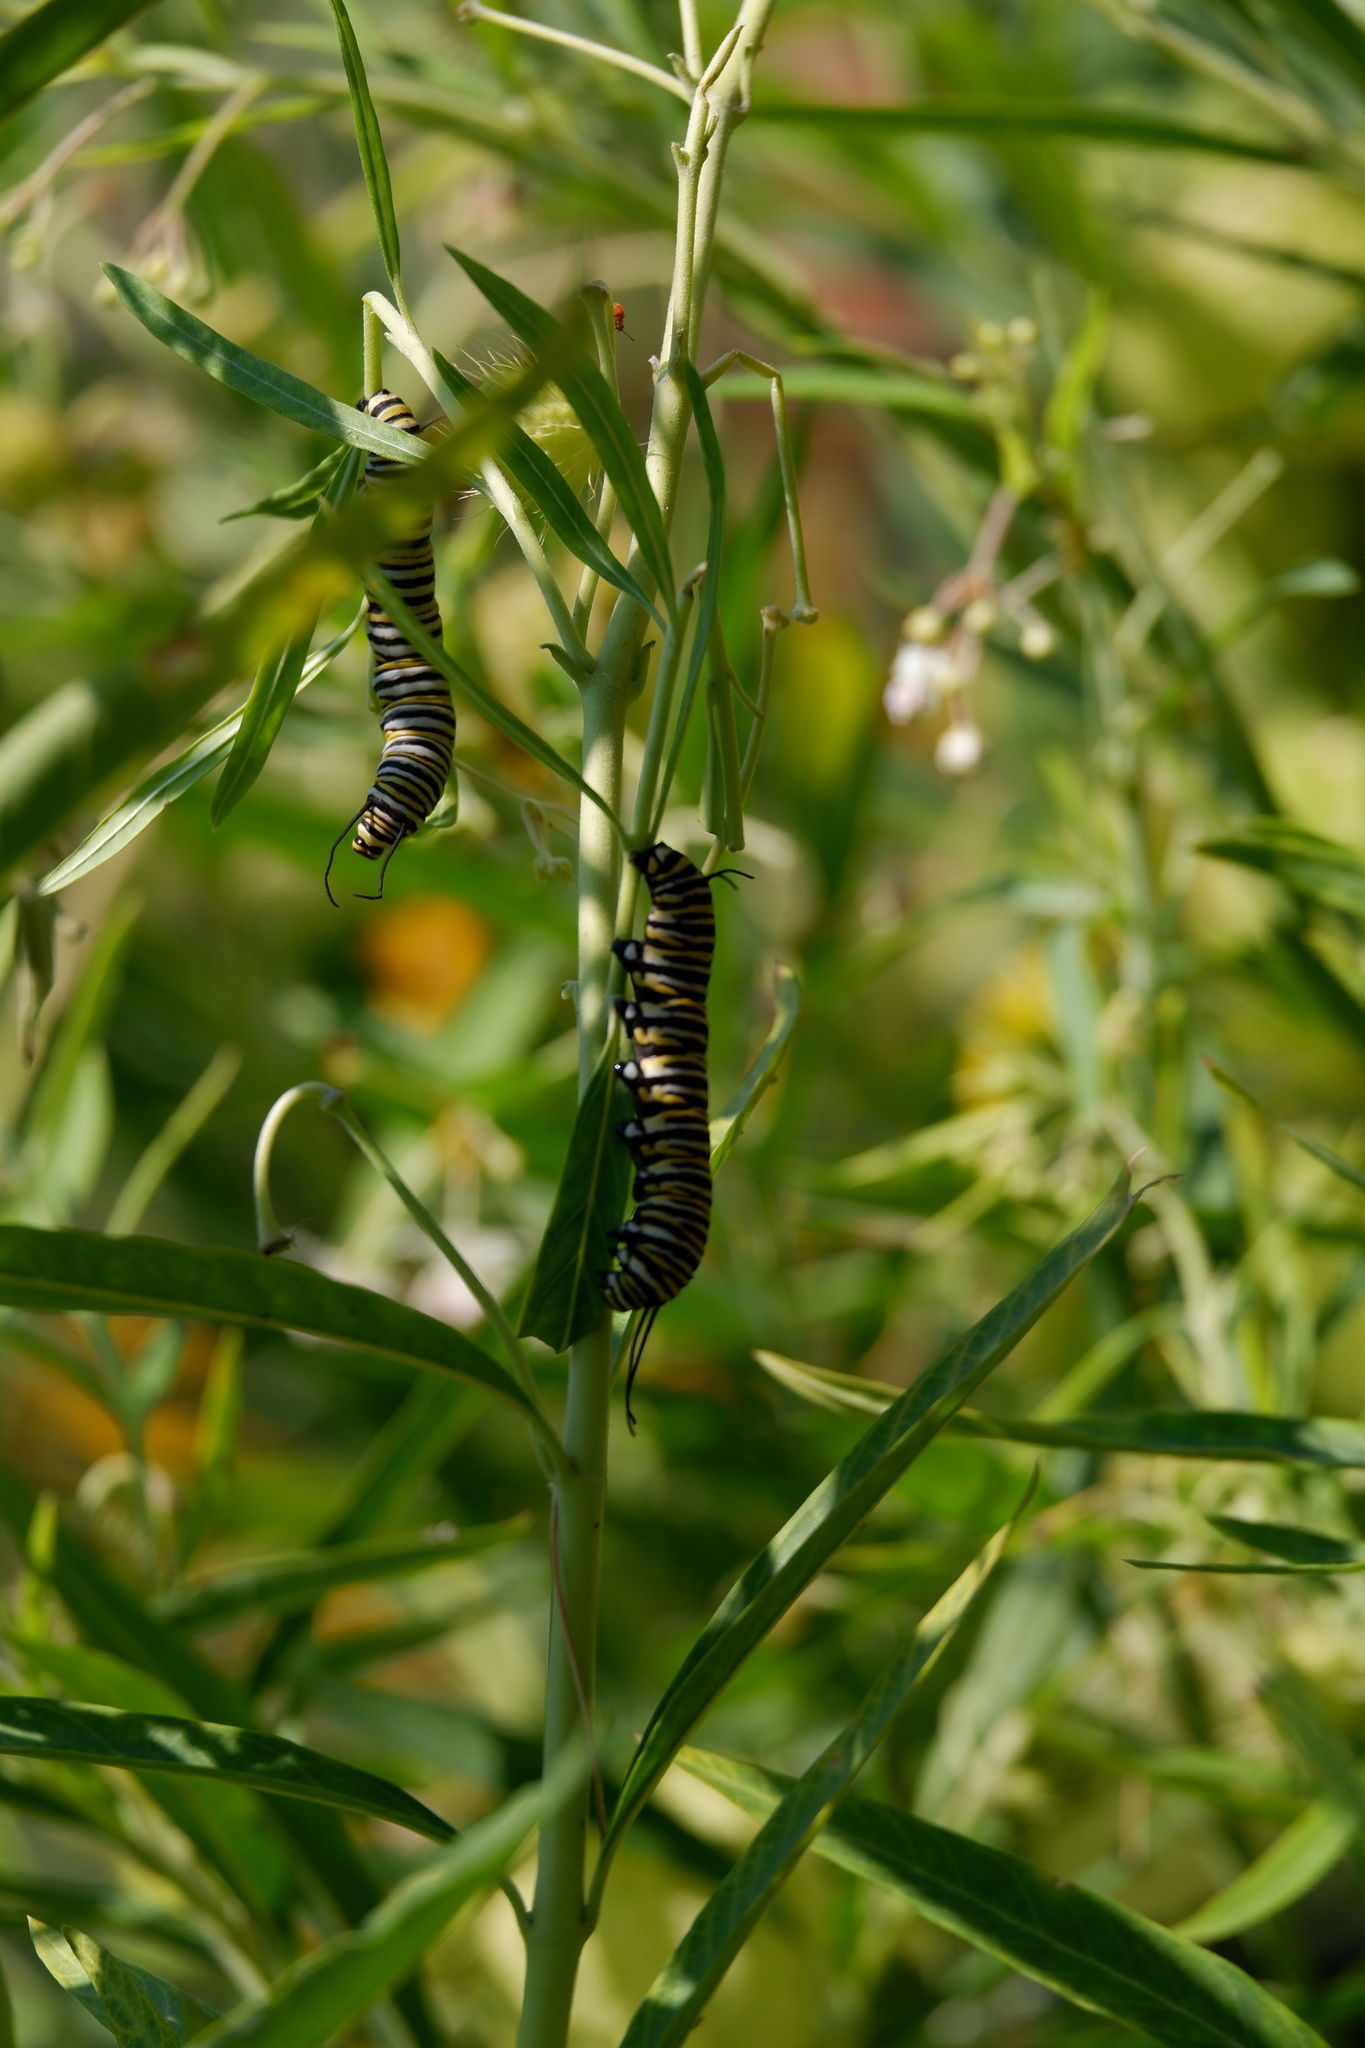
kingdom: Animalia
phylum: Arthropoda
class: Insecta
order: Lepidoptera
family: Nymphalidae
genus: Danaus
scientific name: Danaus plexippus
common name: Monarch
